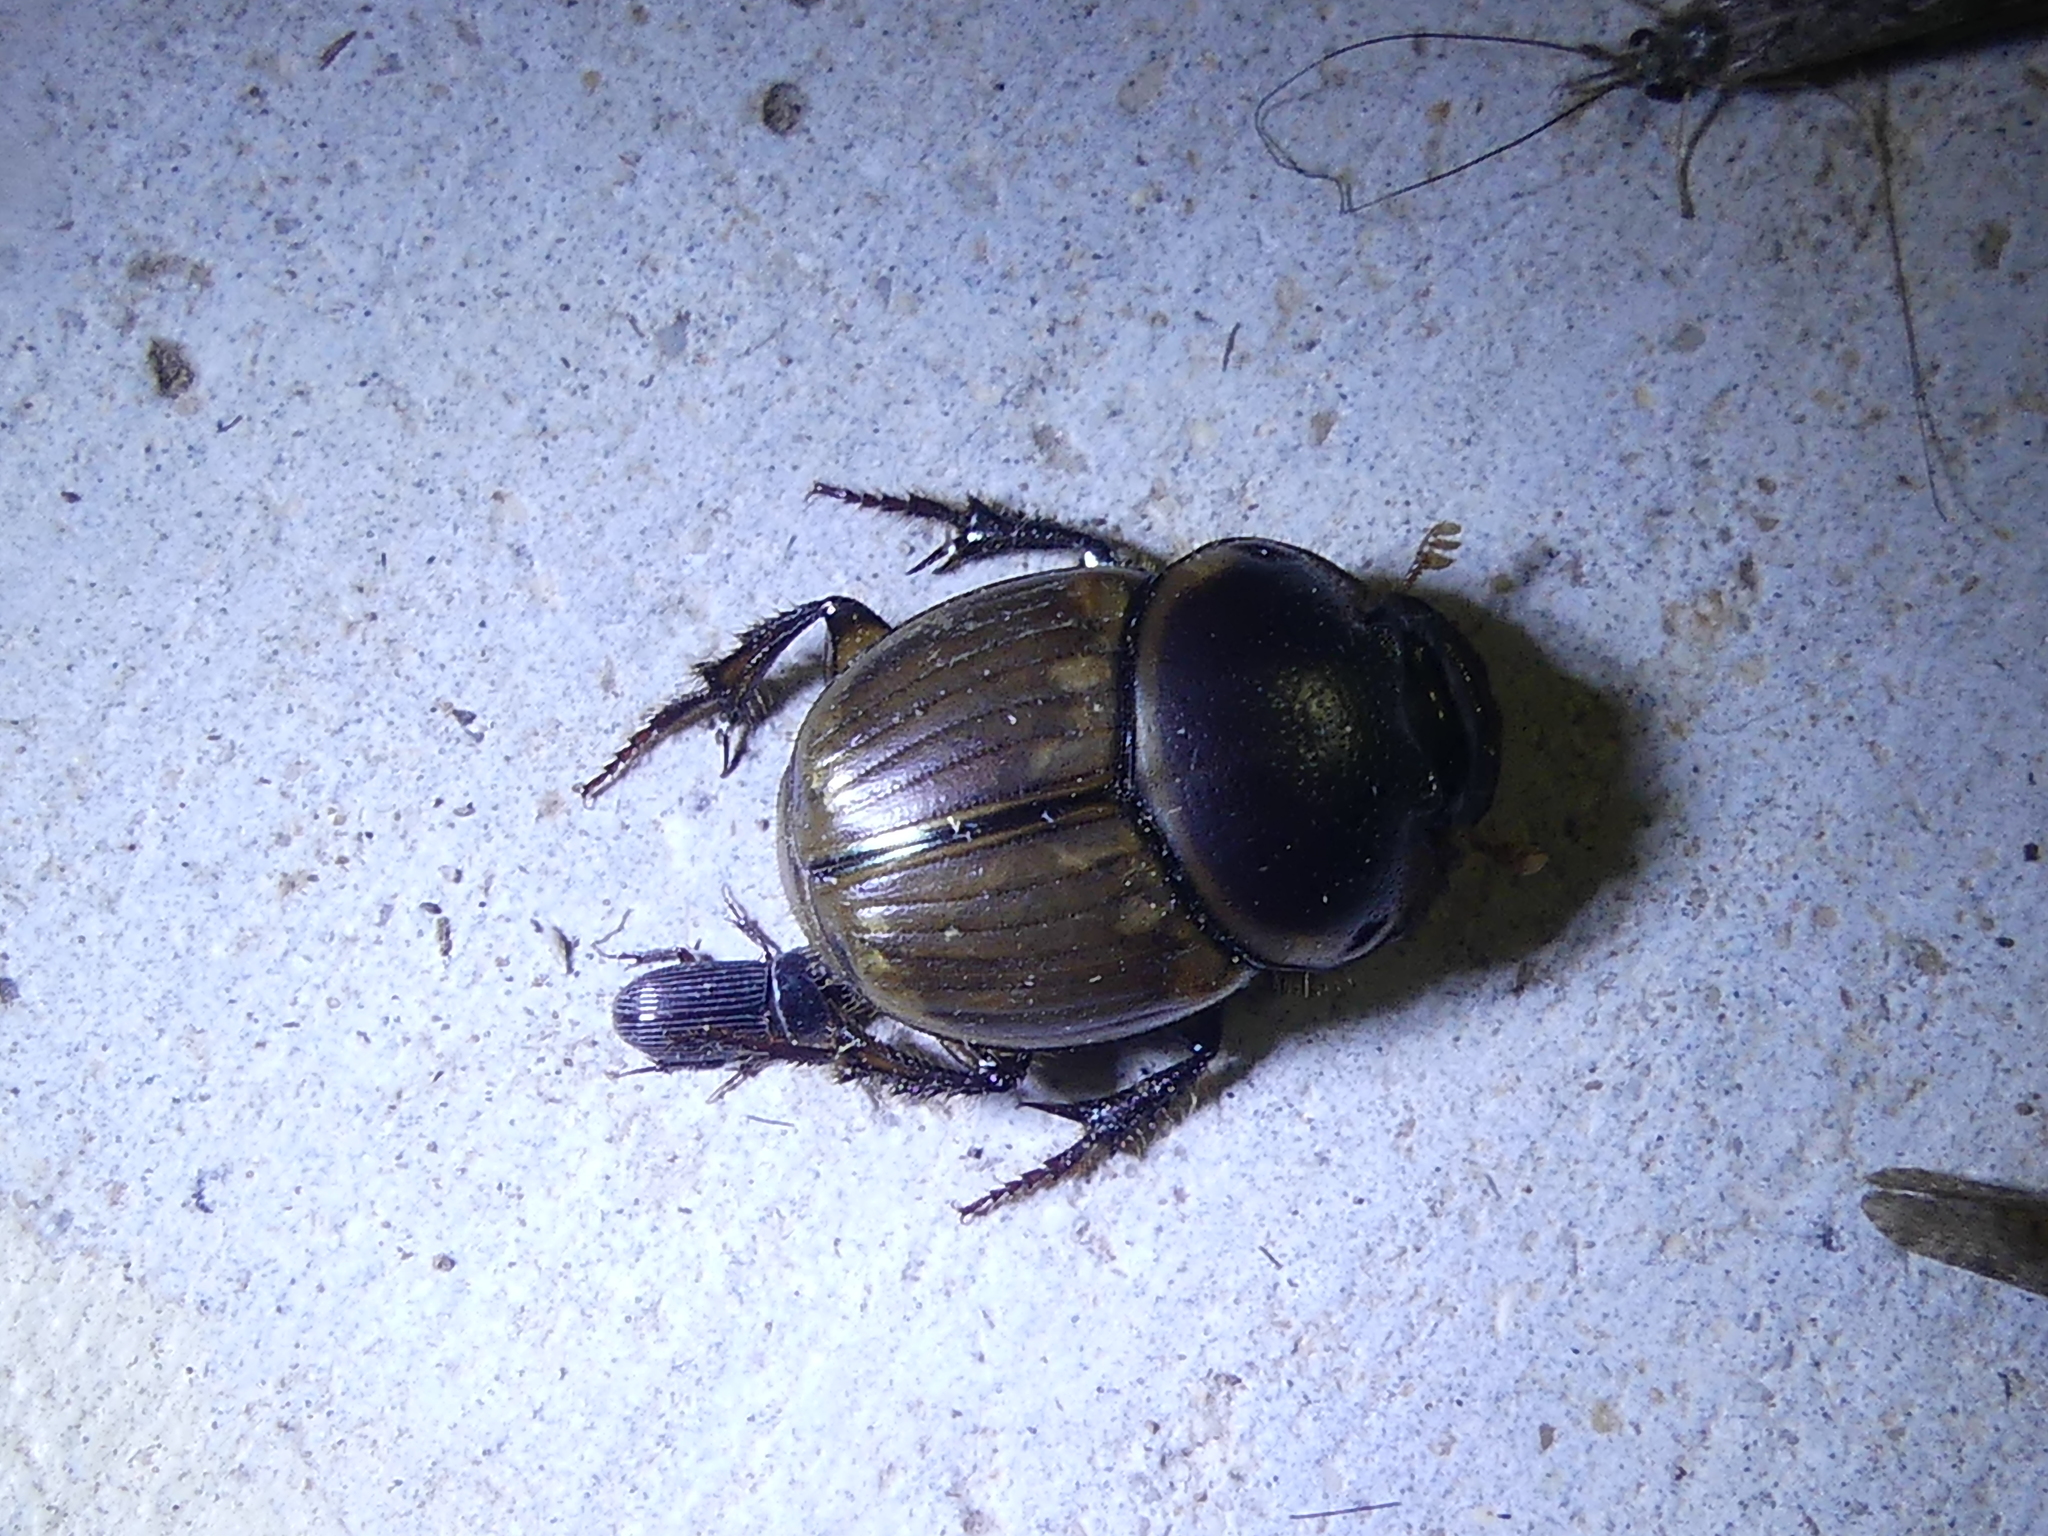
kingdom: Animalia
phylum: Arthropoda
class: Insecta
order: Coleoptera
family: Scarabaeidae
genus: Digitonthophagus
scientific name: Digitonthophagus gazella
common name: Brown dung beetle
